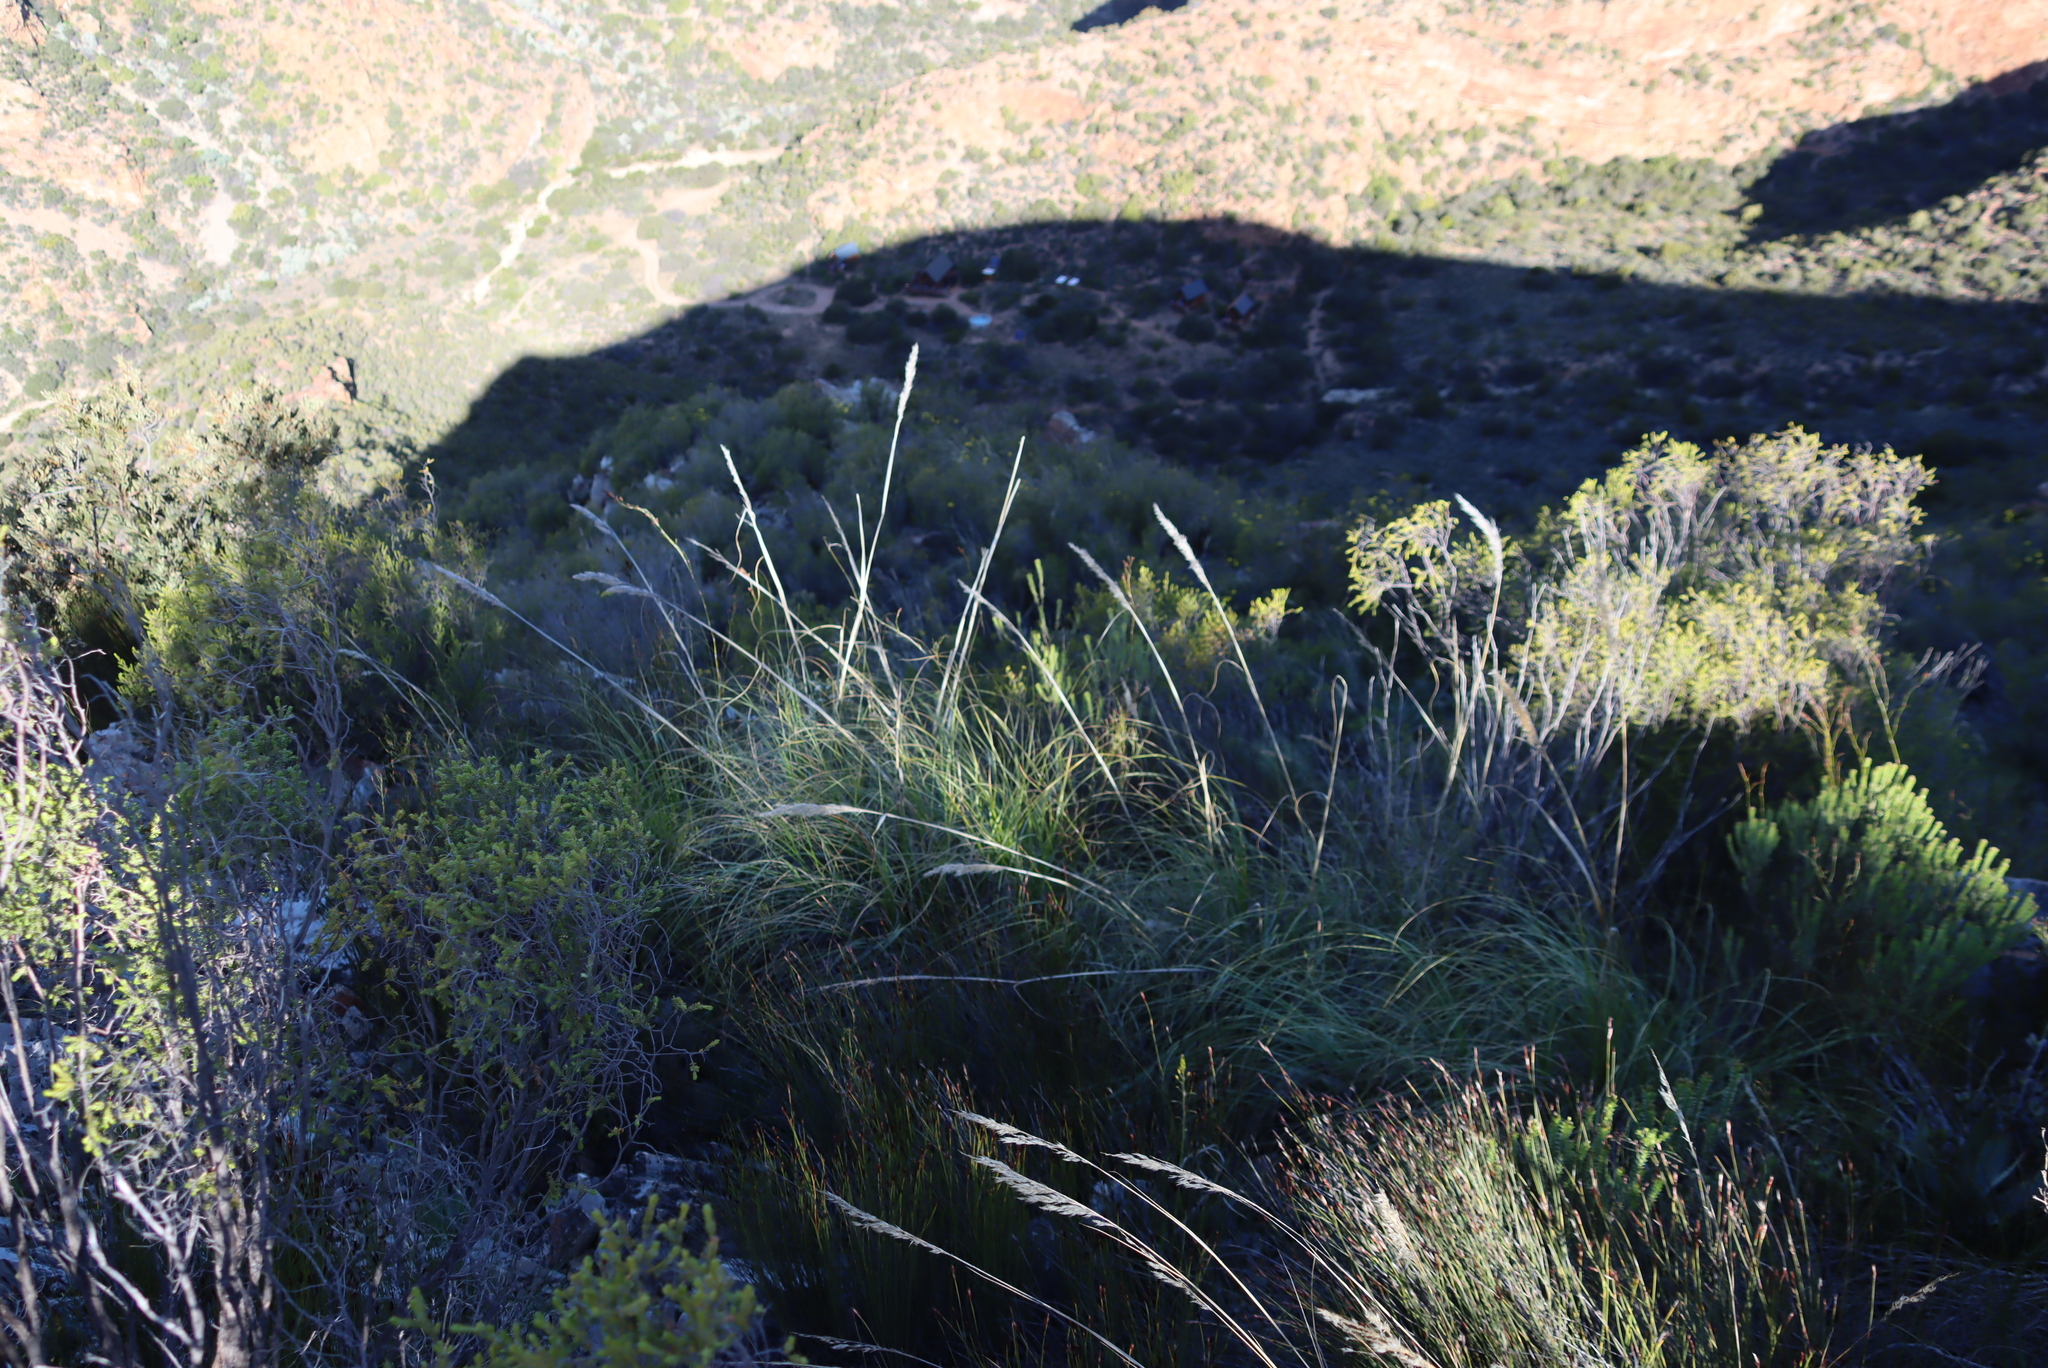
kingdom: Plantae
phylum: Tracheophyta
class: Liliopsida
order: Poales
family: Poaceae
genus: Capeochloa
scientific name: Capeochloa arundinacea
